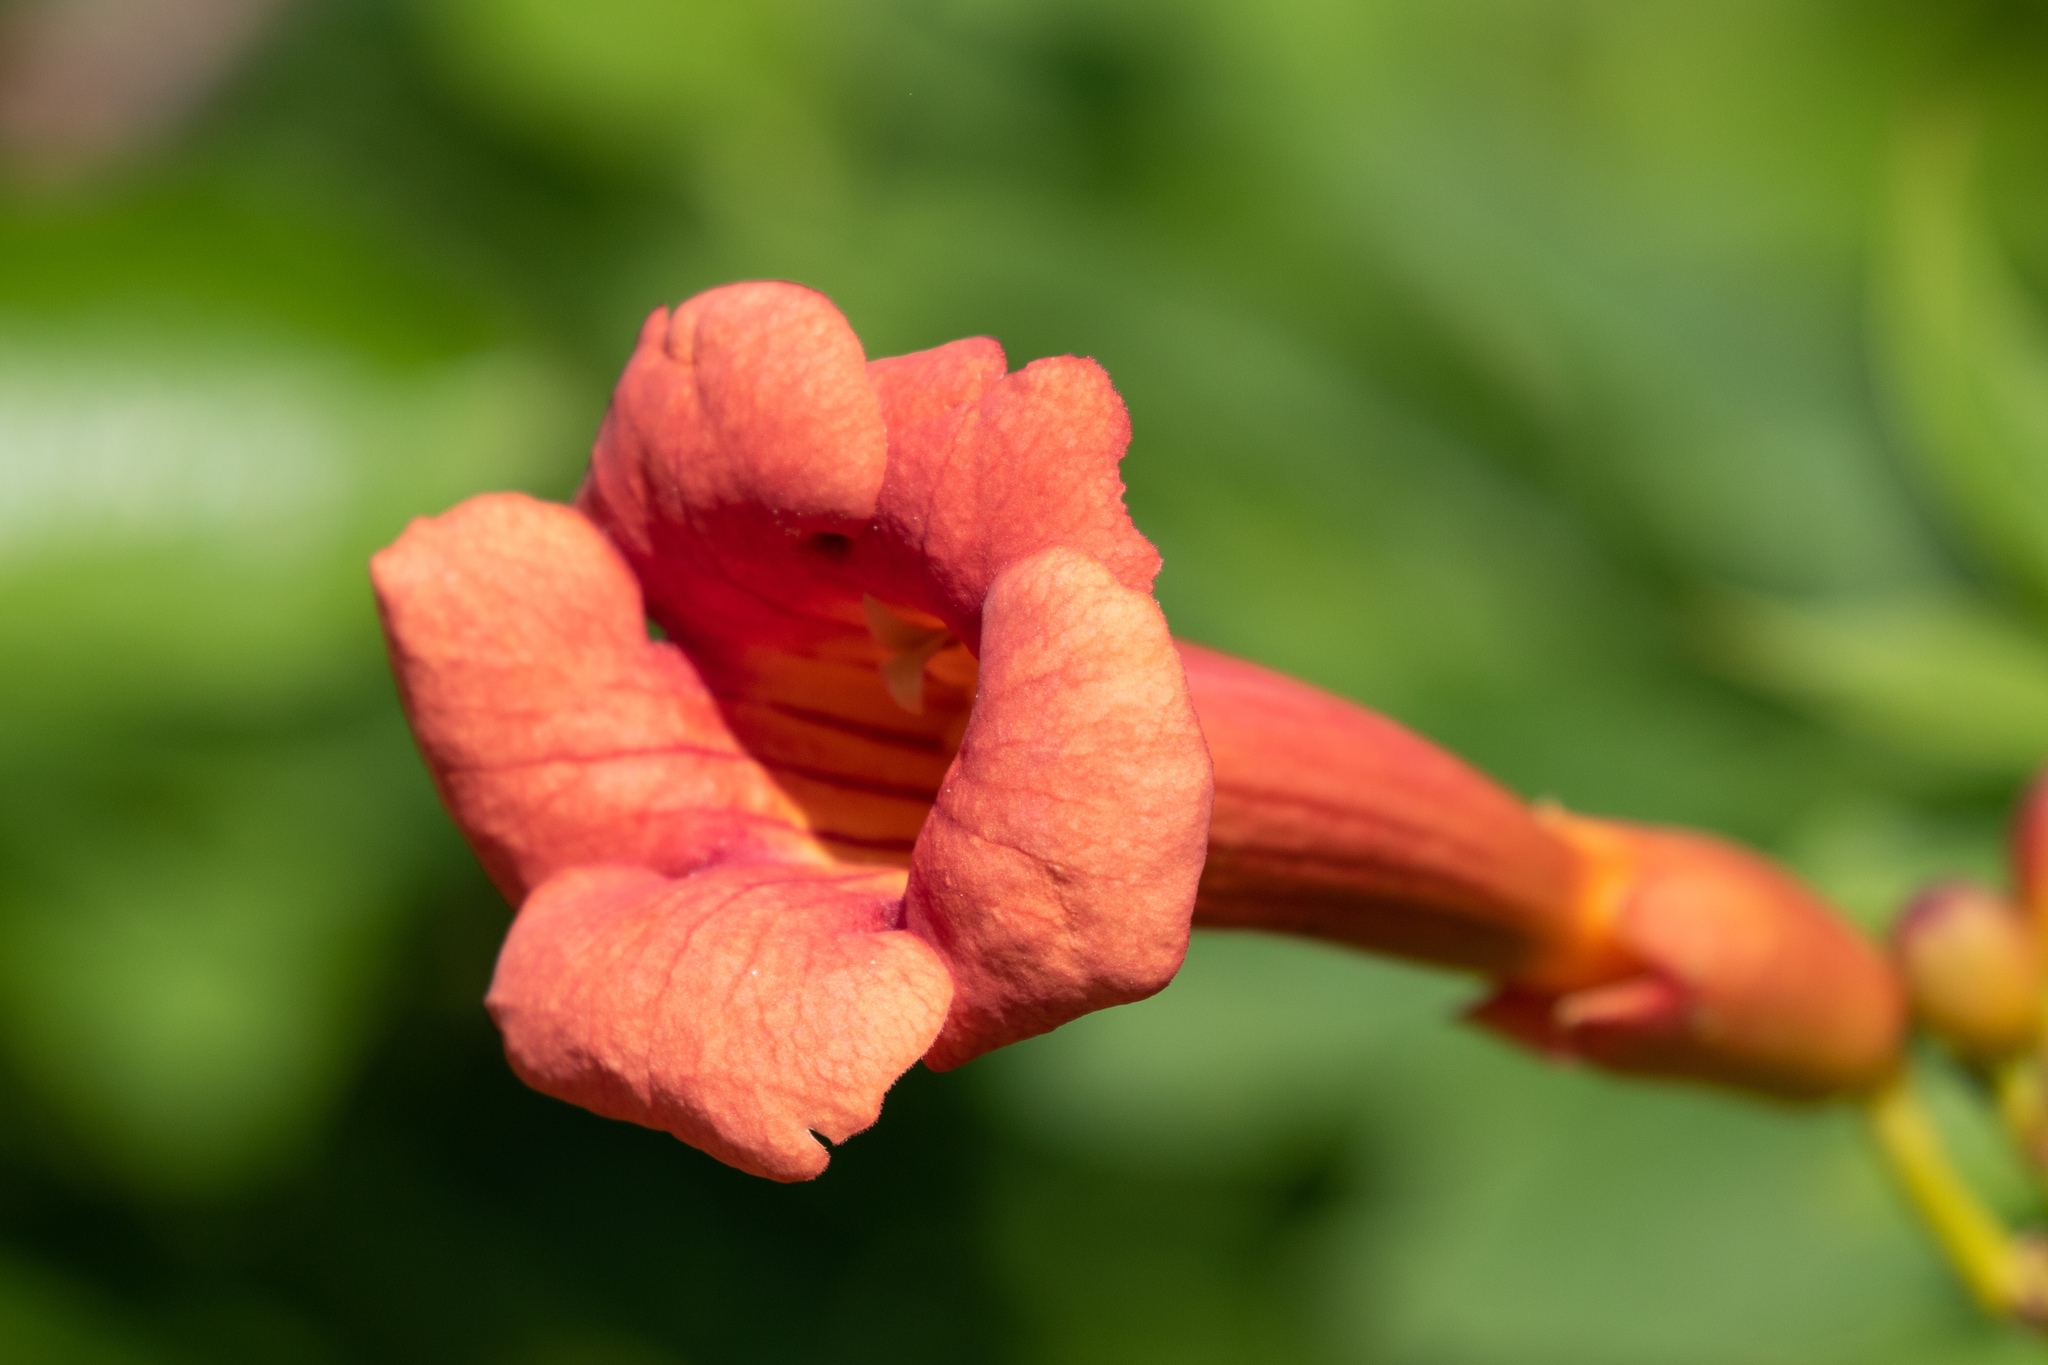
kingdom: Plantae
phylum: Tracheophyta
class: Magnoliopsida
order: Lamiales
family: Bignoniaceae
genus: Campsis
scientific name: Campsis radicans
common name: Trumpet-creeper
